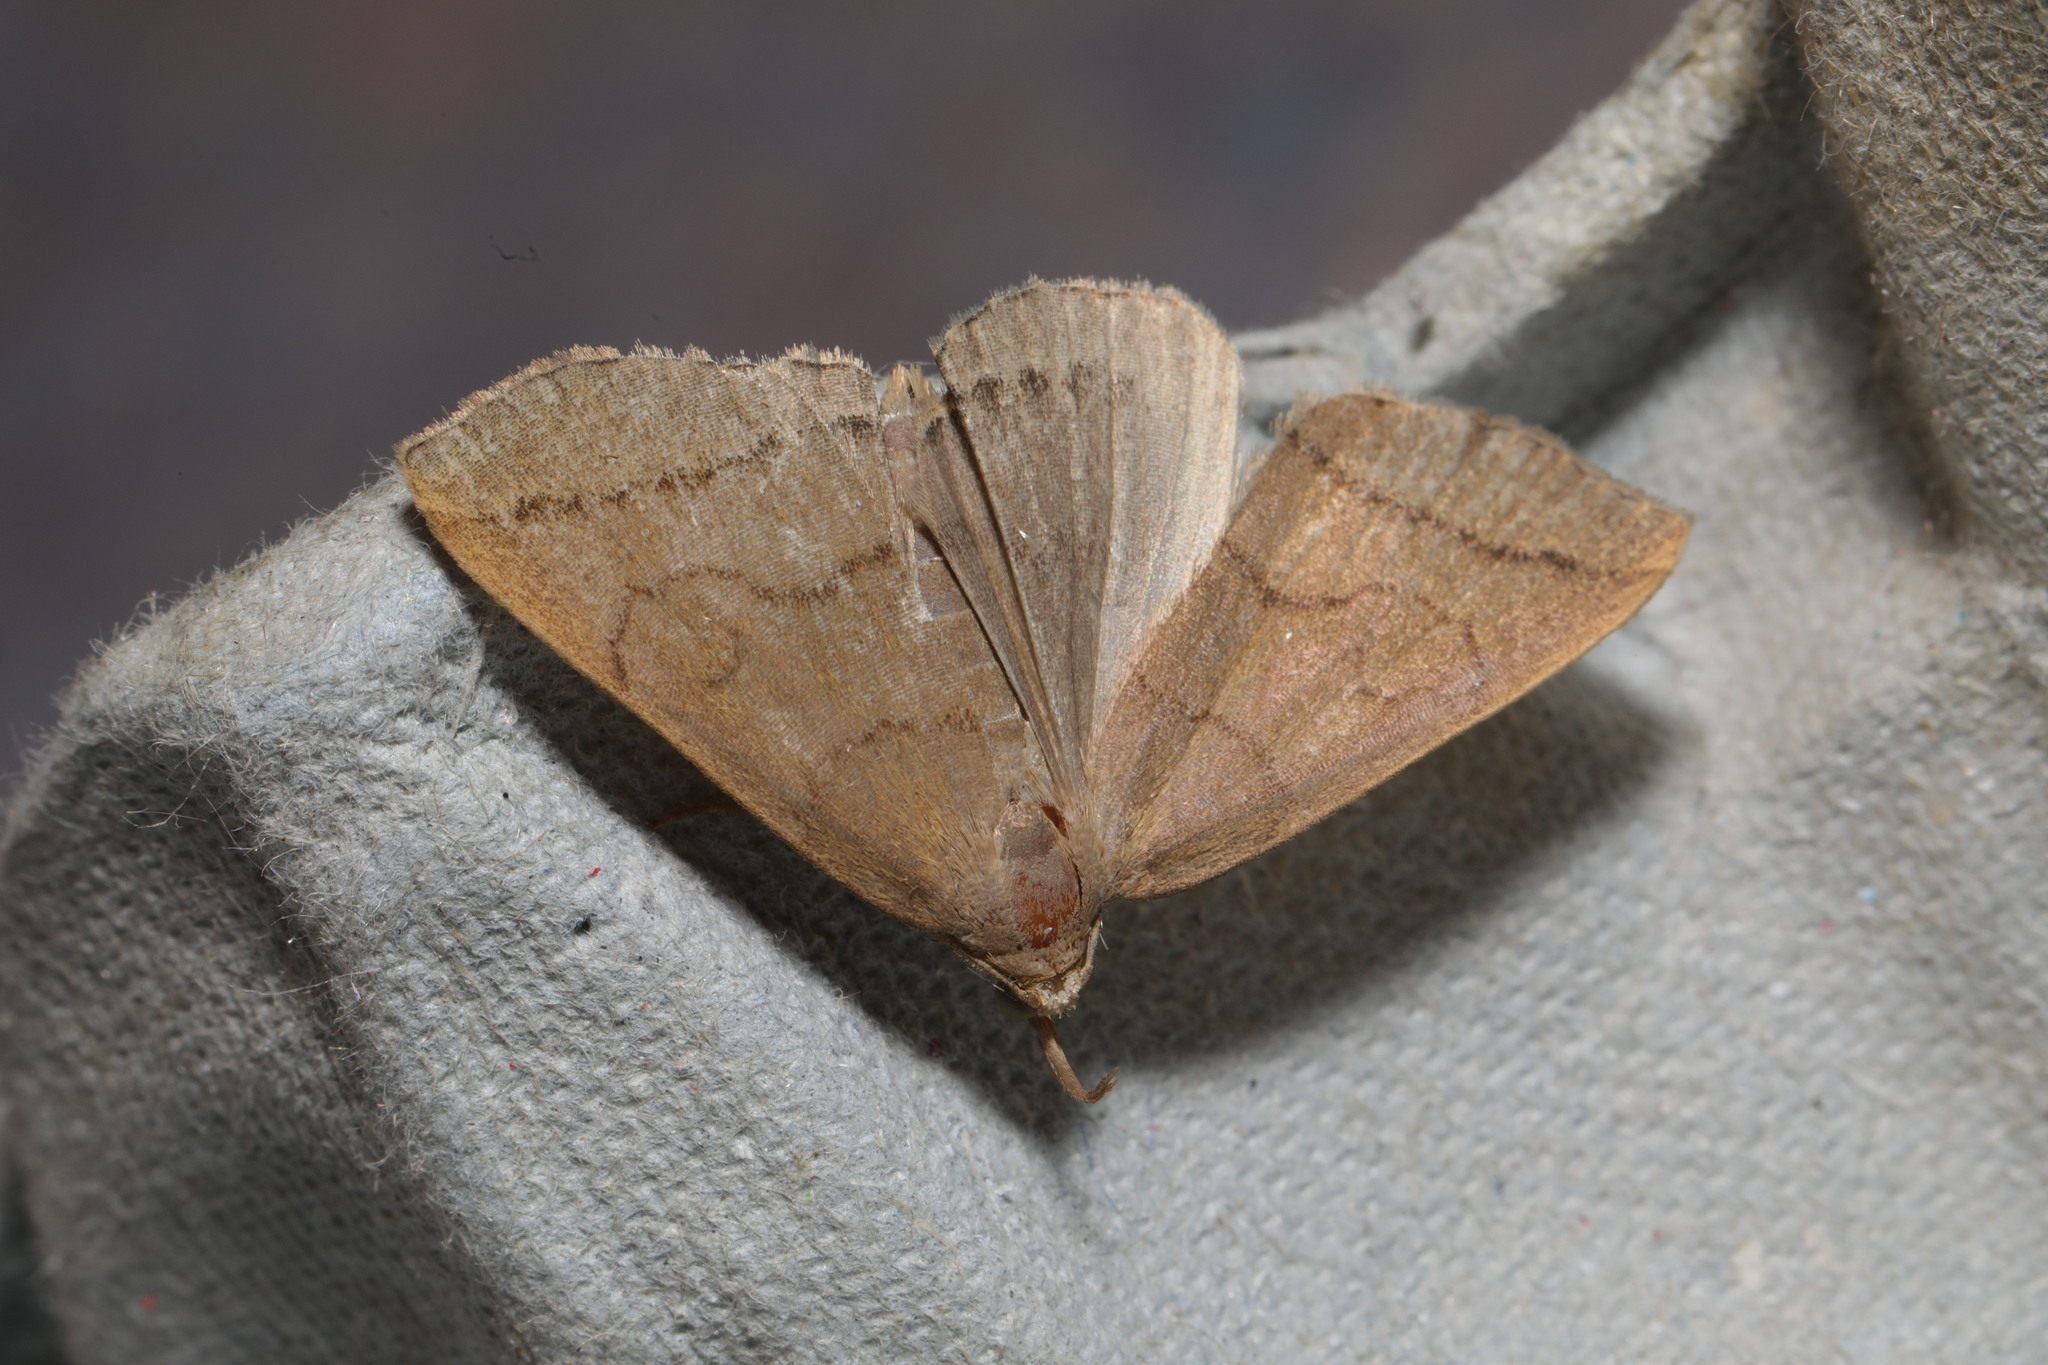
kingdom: Animalia
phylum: Arthropoda
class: Insecta
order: Lepidoptera
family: Erebidae
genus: Herminia
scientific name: Herminia tarsipennalis
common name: Fan-foot
